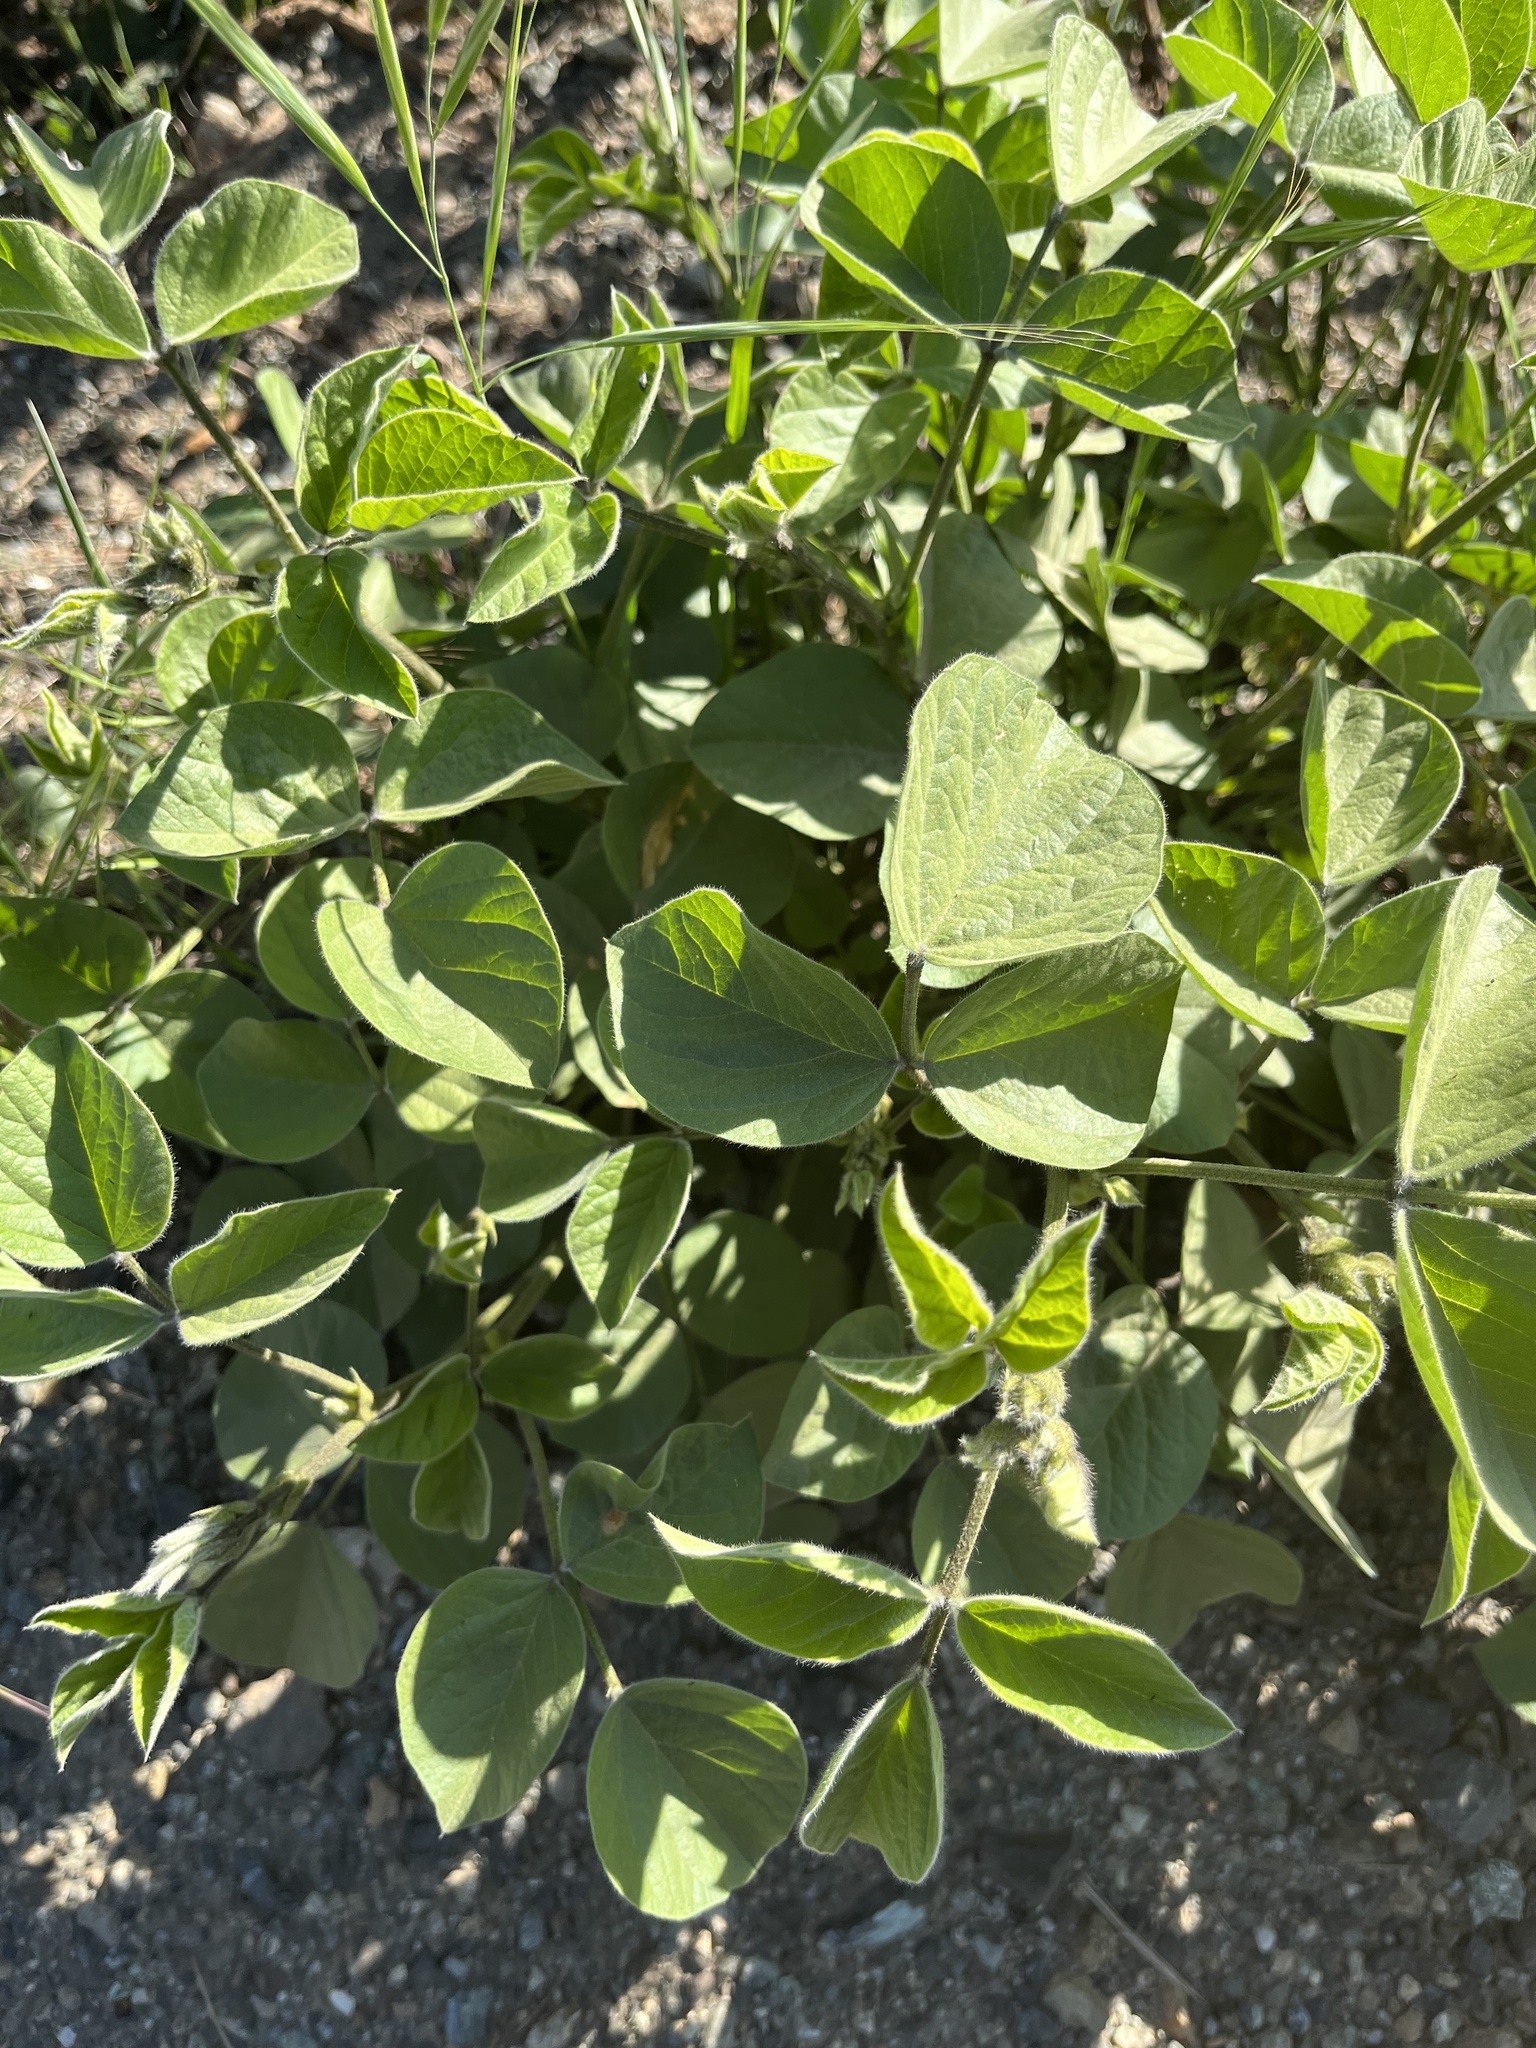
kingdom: Plantae
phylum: Tracheophyta
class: Magnoliopsida
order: Fabales
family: Fabaceae
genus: Hoita
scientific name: Hoita strobilina
